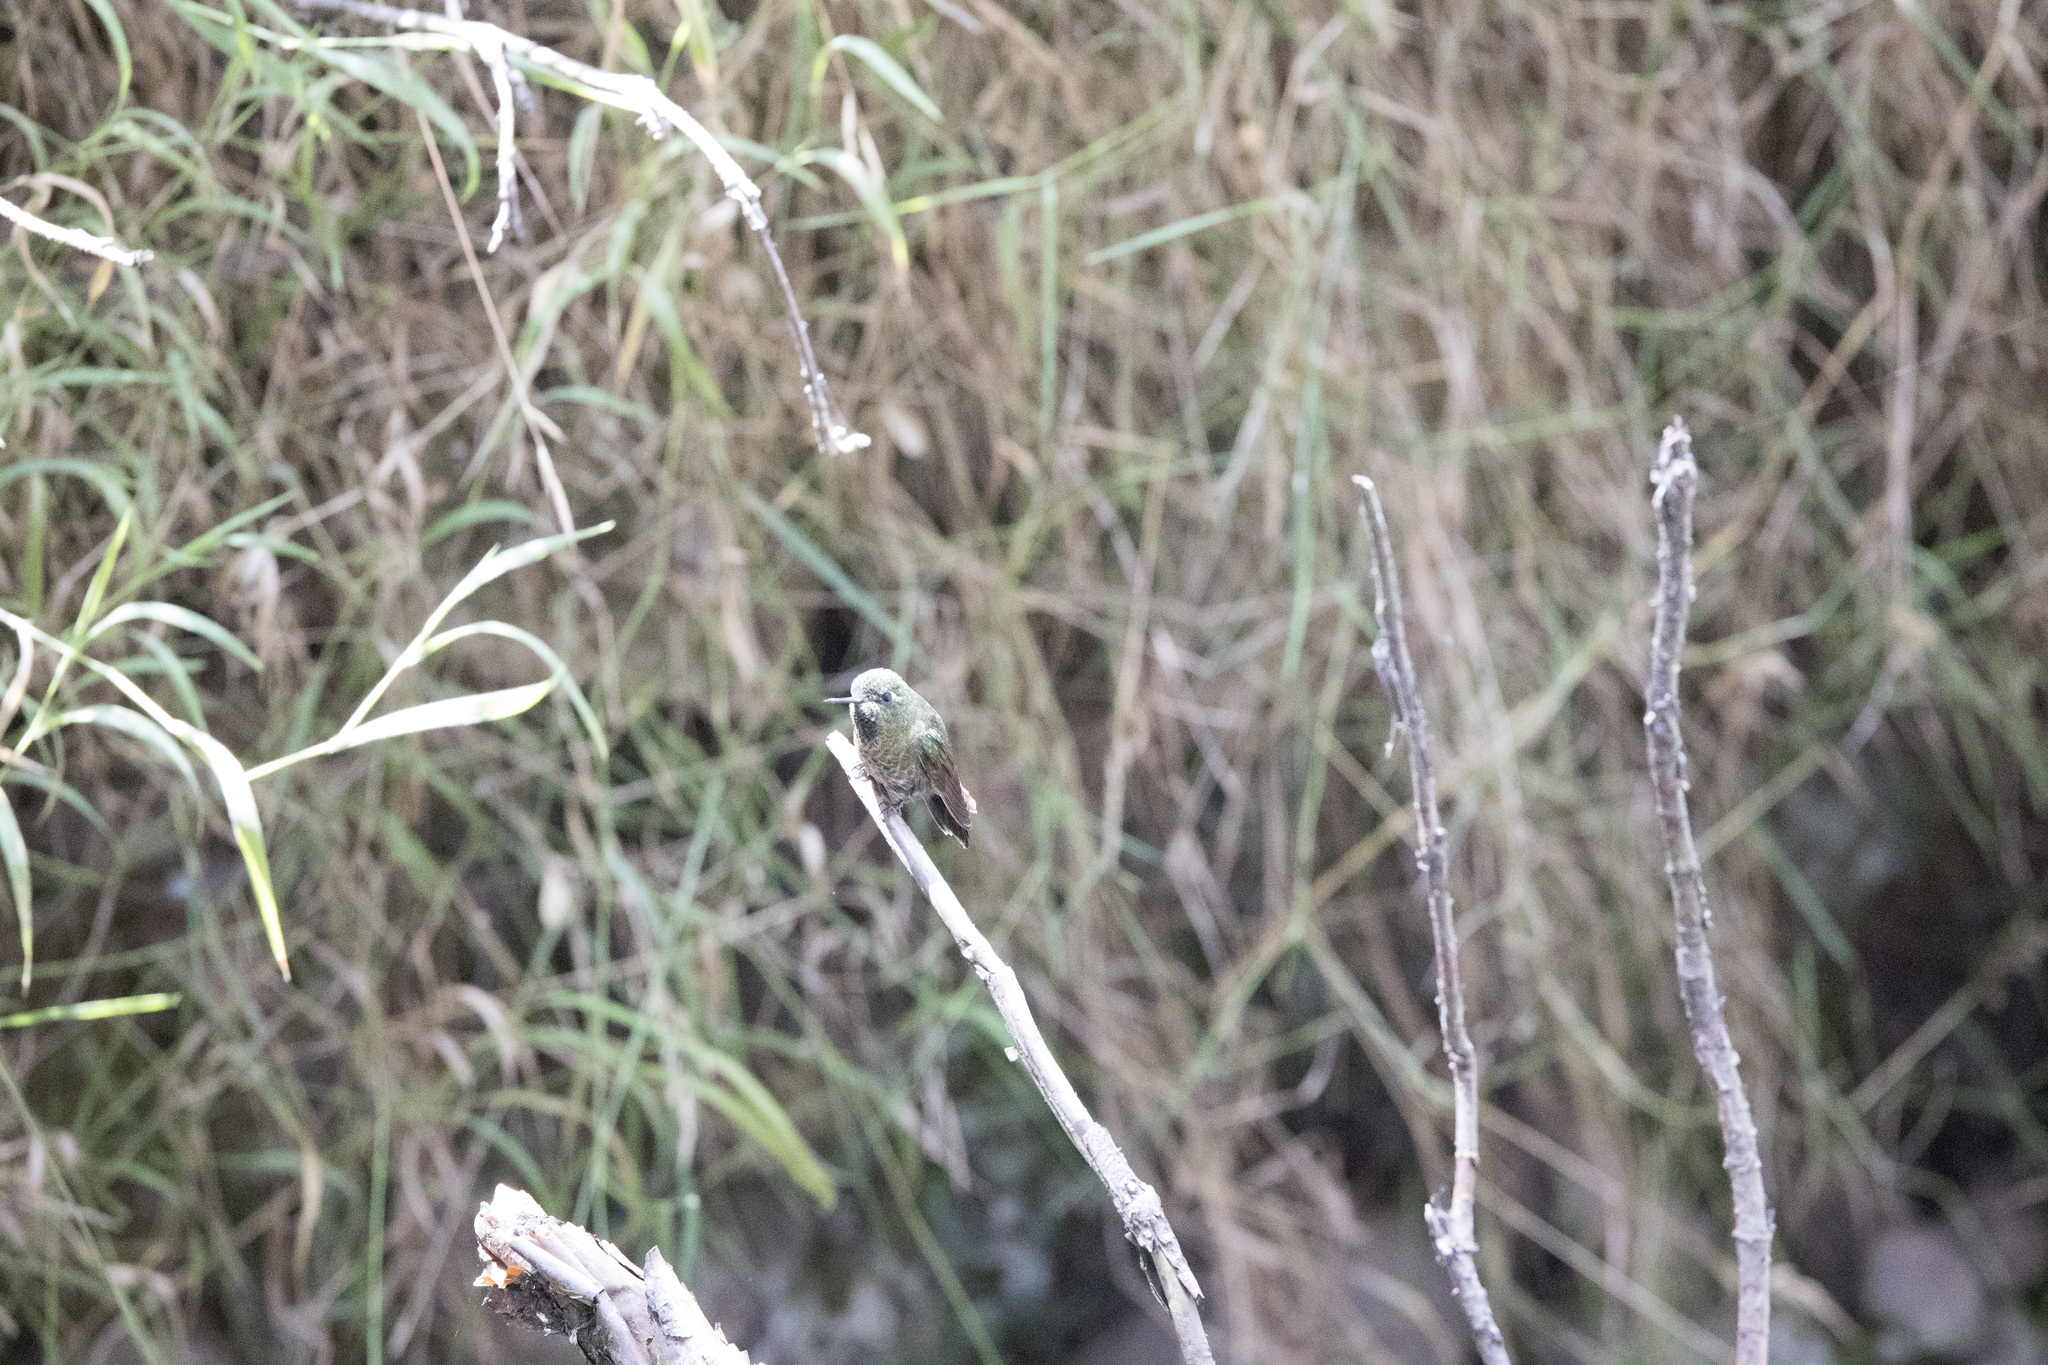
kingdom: Animalia
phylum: Chordata
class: Aves
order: Apodiformes
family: Trochilidae
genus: Metallura
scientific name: Metallura tyrianthina
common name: Tyrian metaltail
